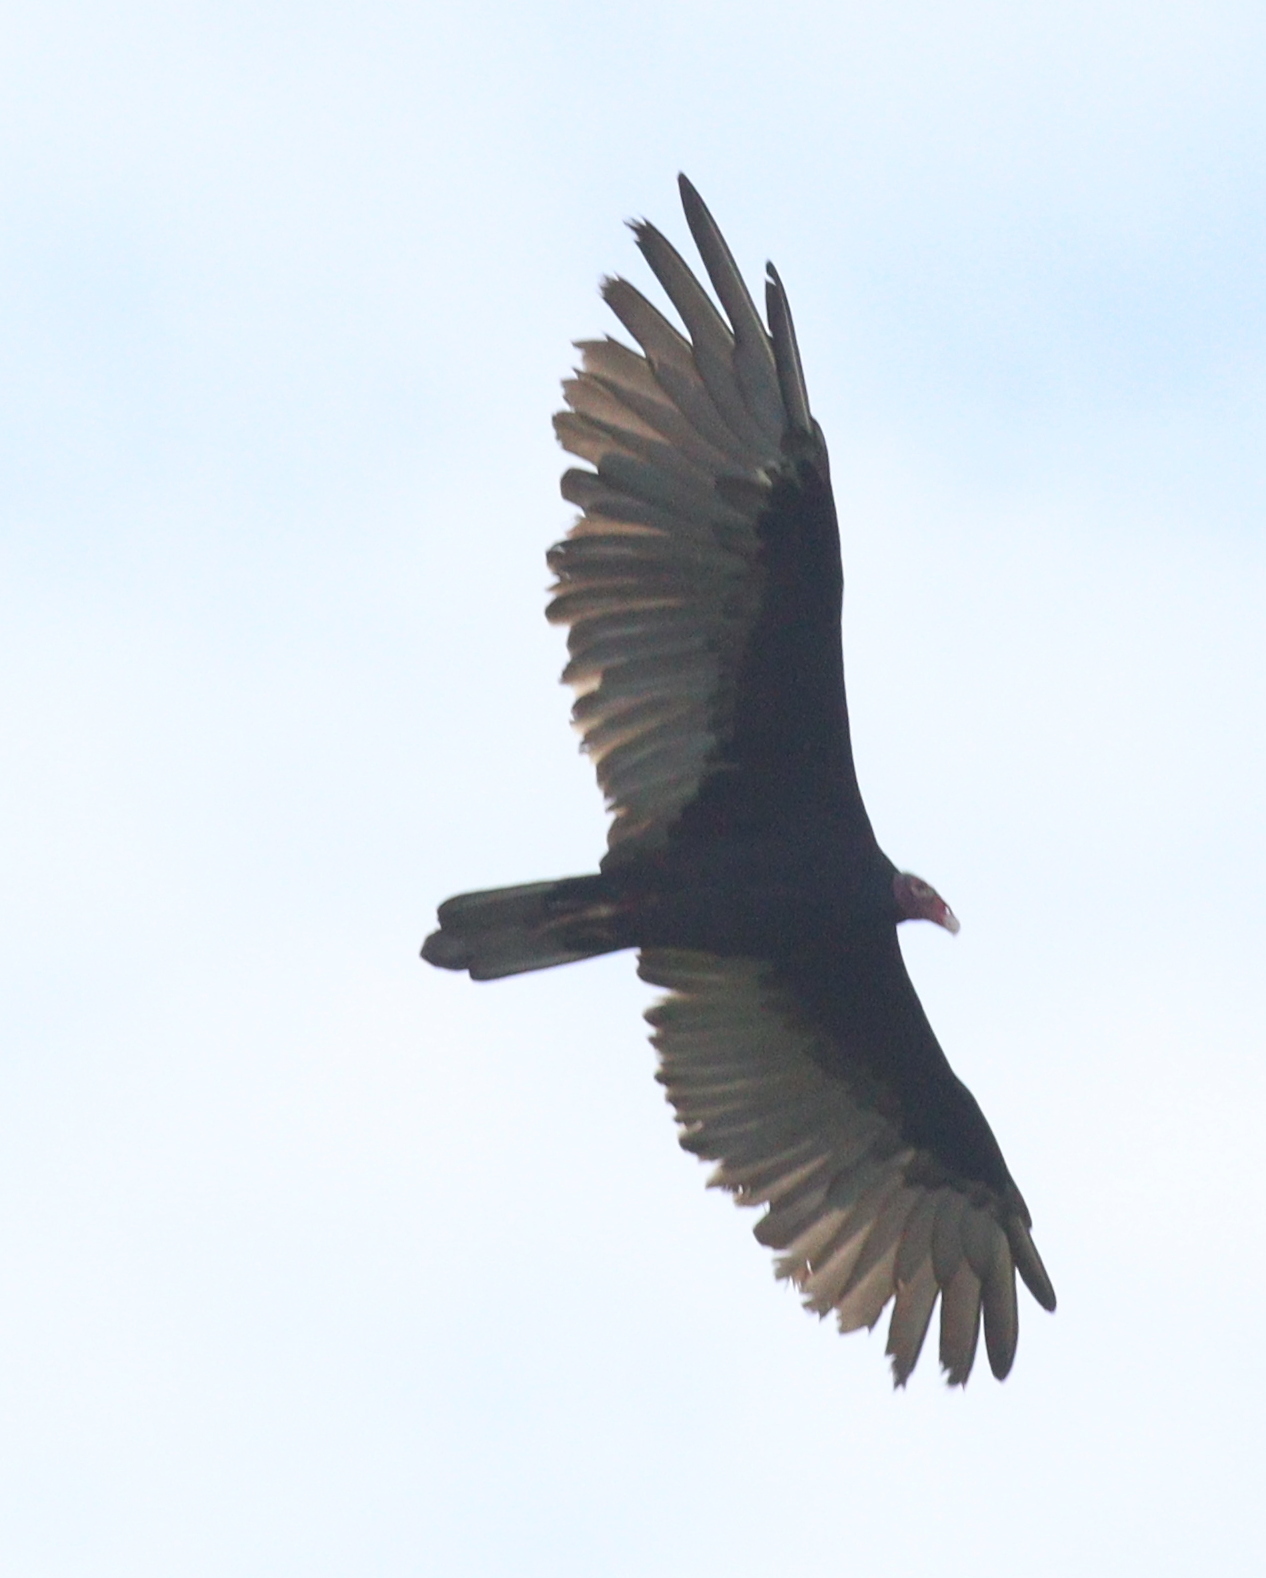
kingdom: Animalia
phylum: Chordata
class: Aves
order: Accipitriformes
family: Cathartidae
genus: Cathartes
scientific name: Cathartes aura
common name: Turkey vulture
